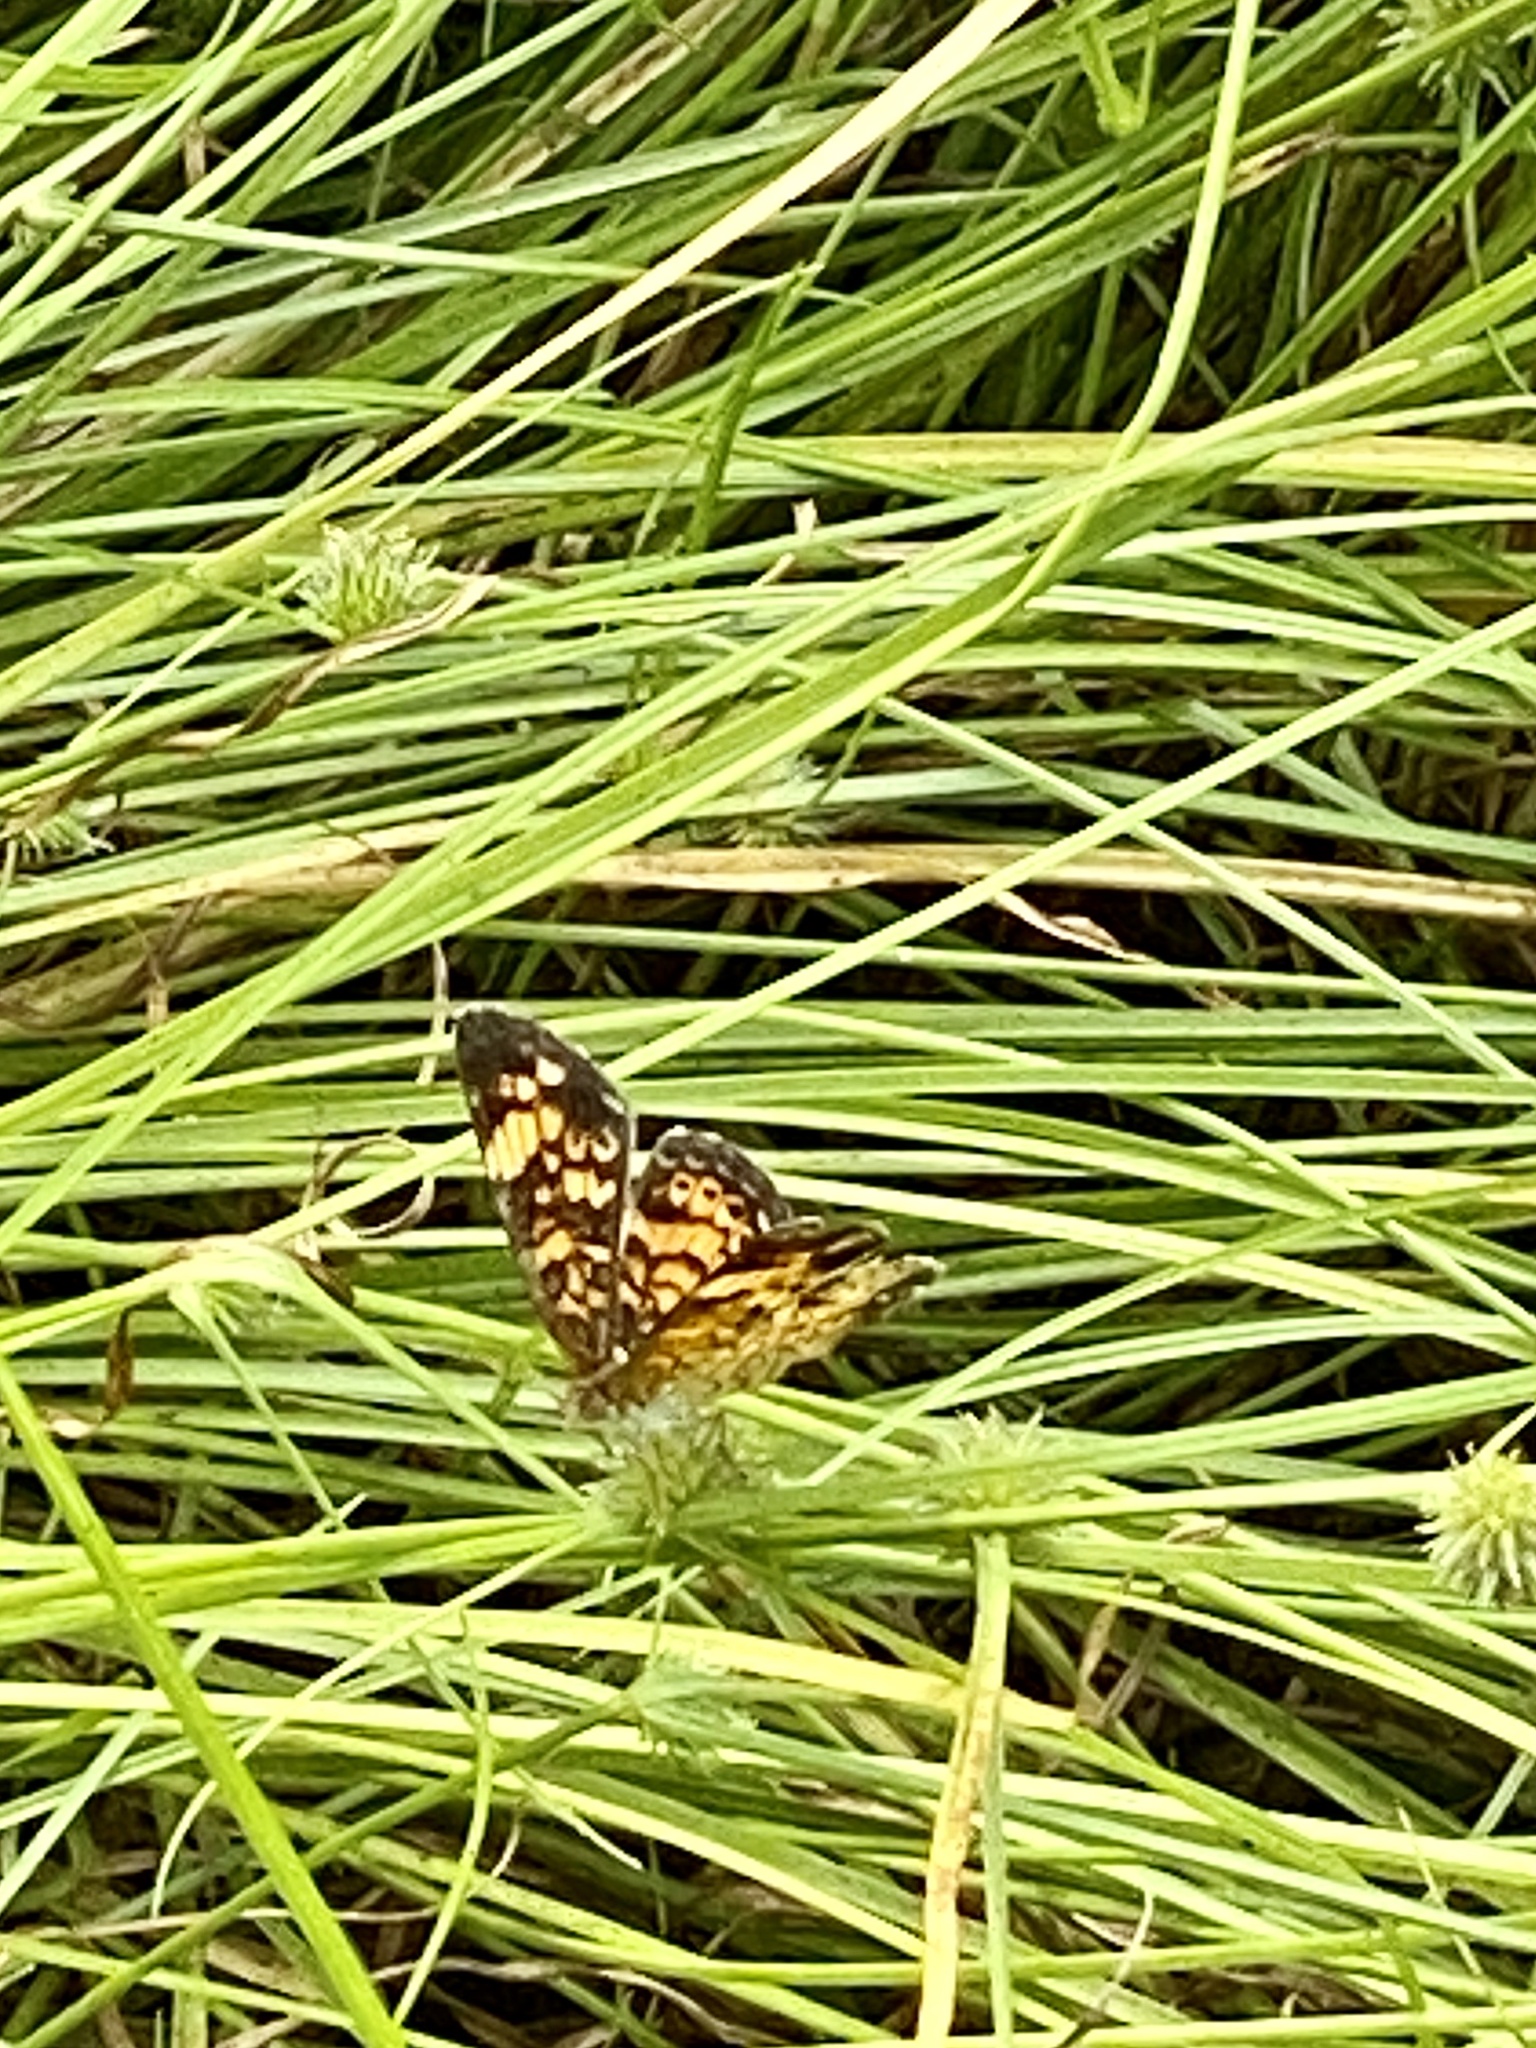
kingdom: Animalia
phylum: Arthropoda
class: Insecta
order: Lepidoptera
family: Nymphalidae
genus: Phyciodes
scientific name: Phyciodes tharos
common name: Pearl crescent
